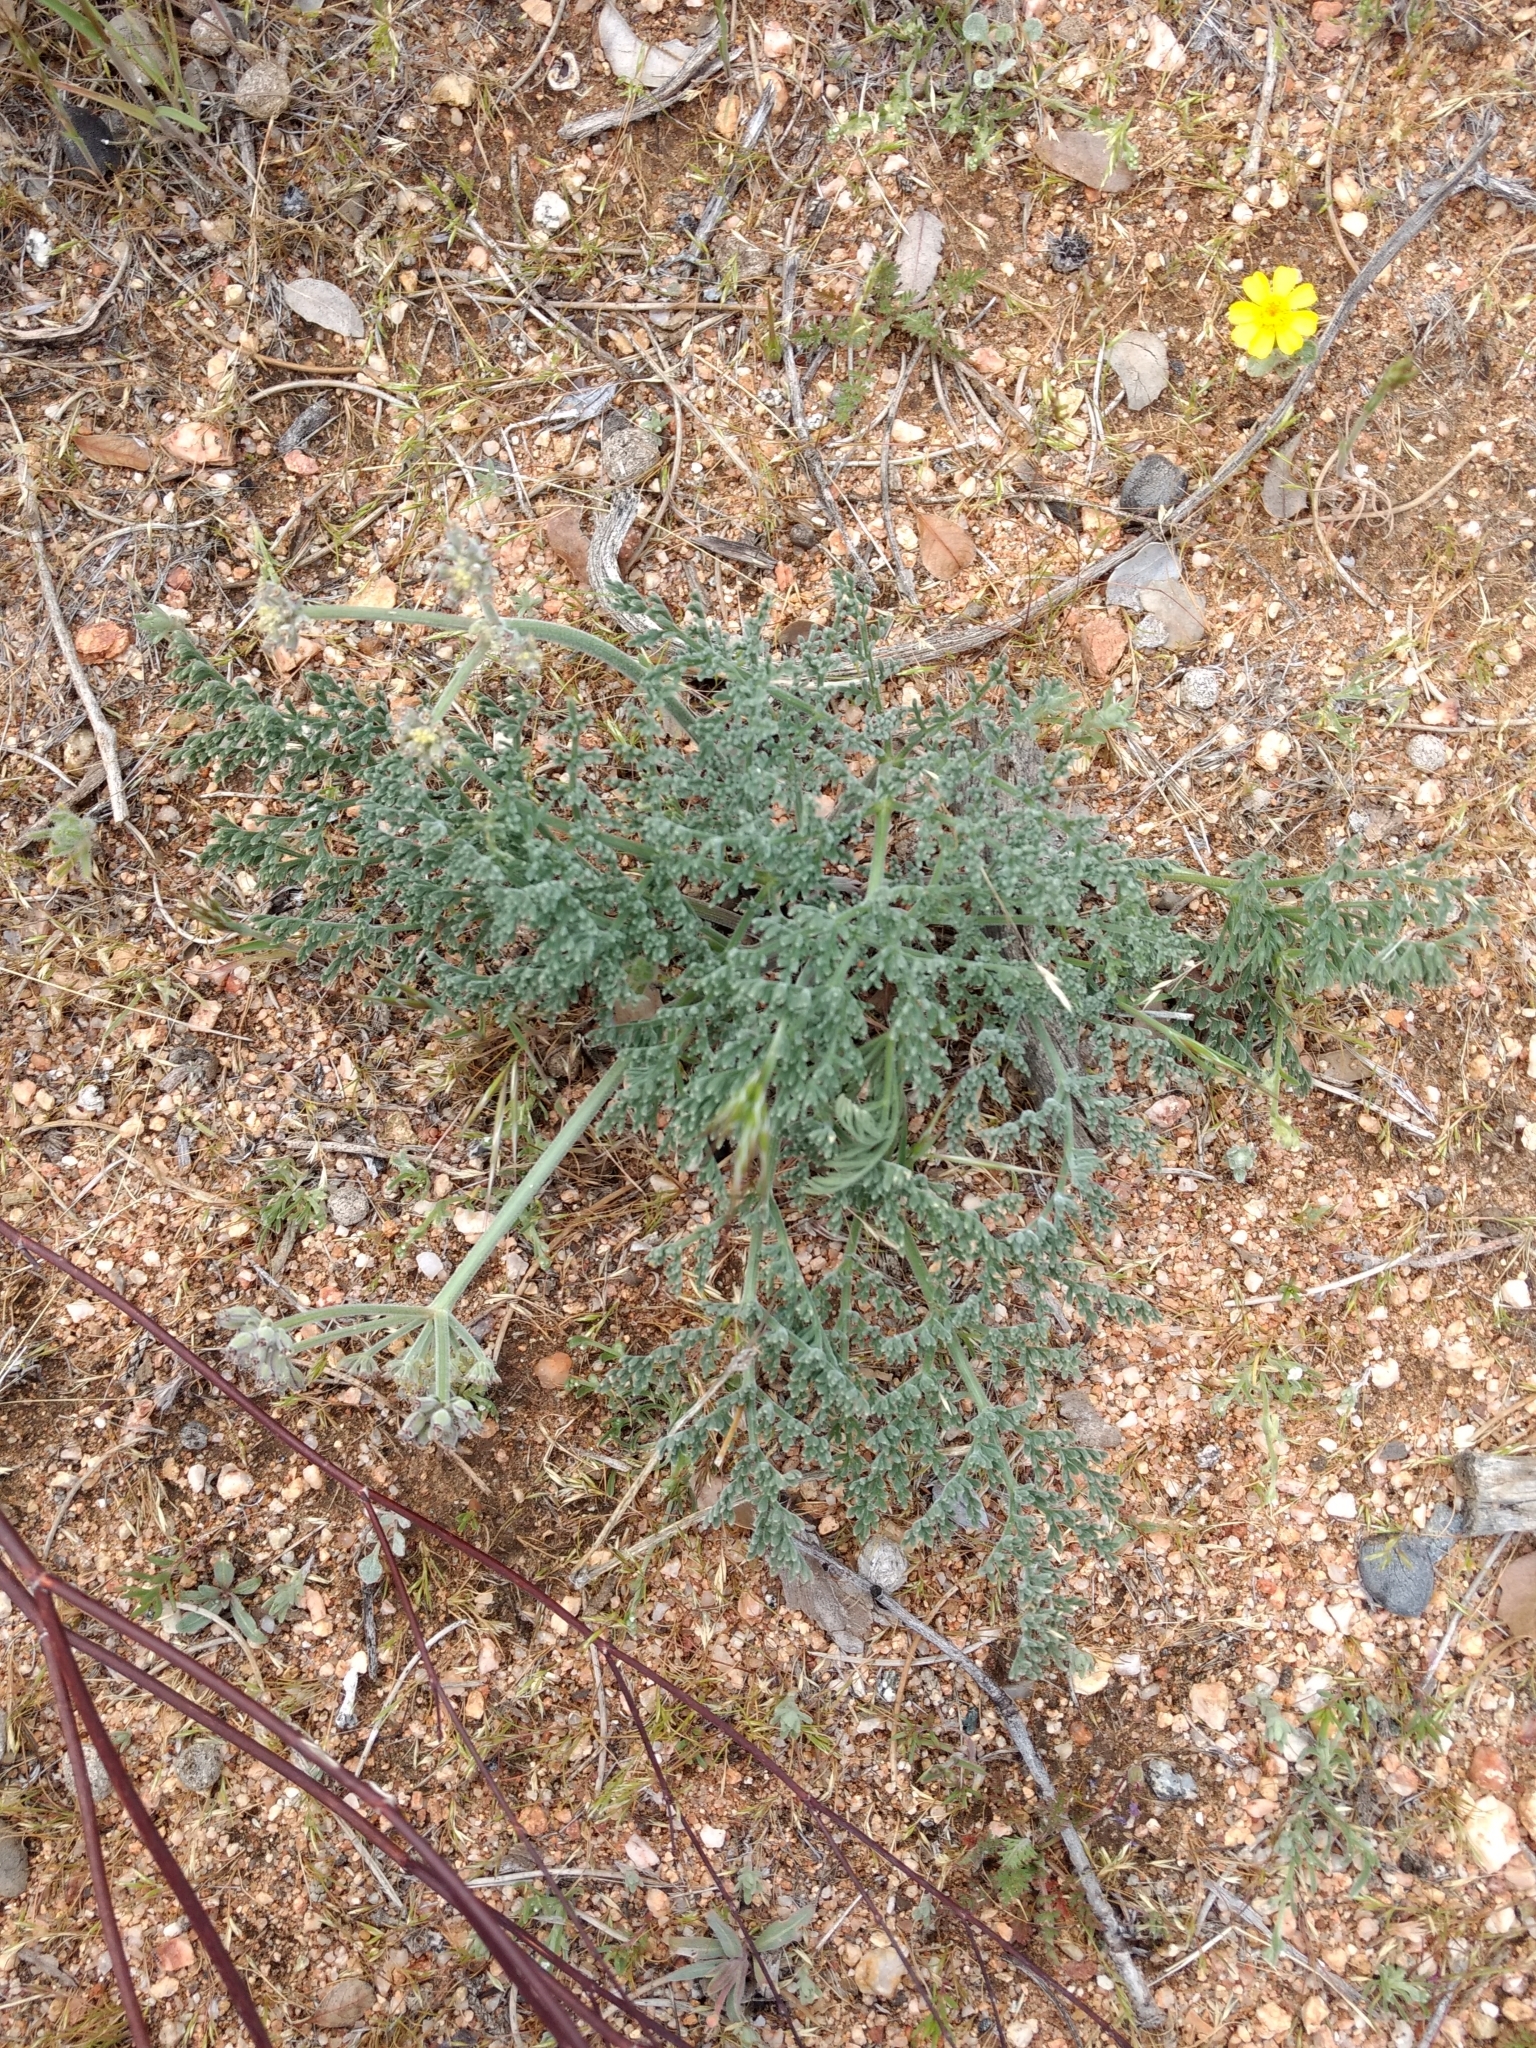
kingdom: Plantae
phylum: Tracheophyta
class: Magnoliopsida
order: Apiales
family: Apiaceae
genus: Lomatium
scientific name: Lomatium mohavense
